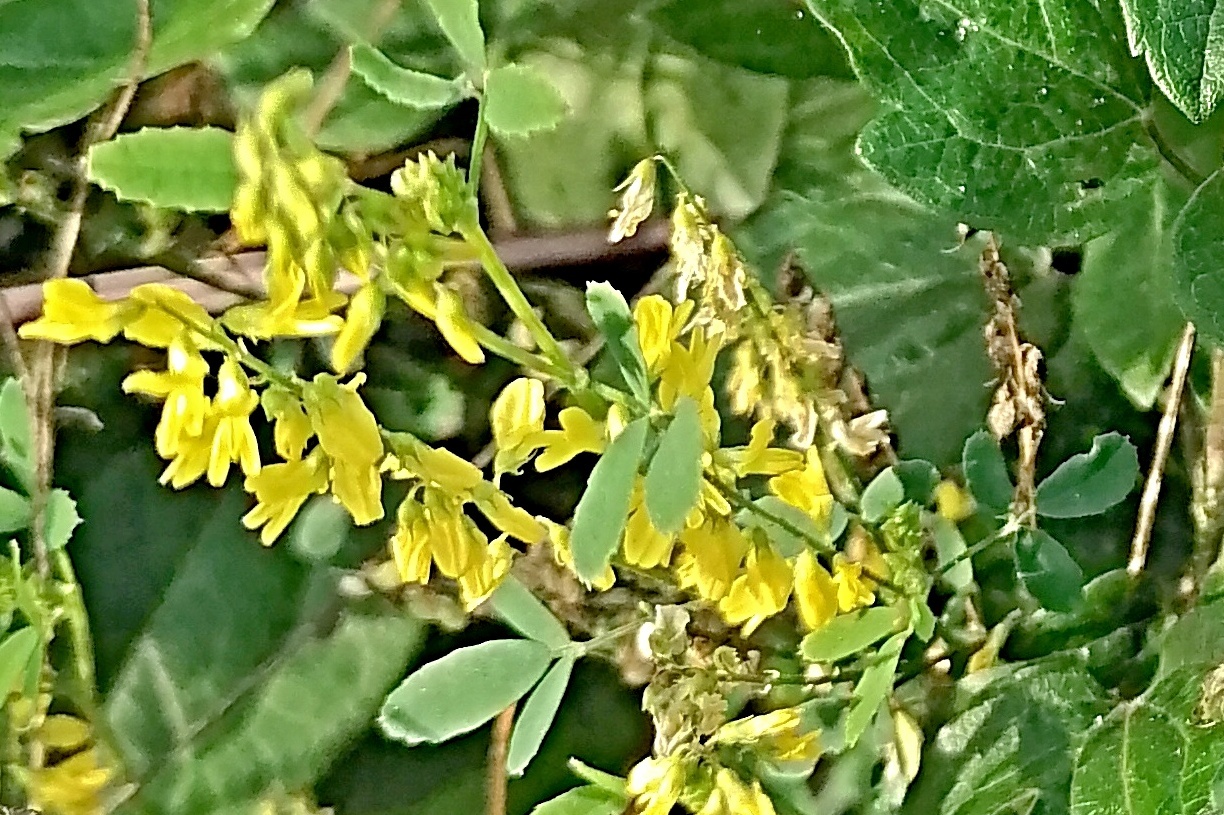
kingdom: Plantae
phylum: Tracheophyta
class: Magnoliopsida
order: Fabales
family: Fabaceae
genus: Melilotus
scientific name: Melilotus officinalis
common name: Sweetclover
